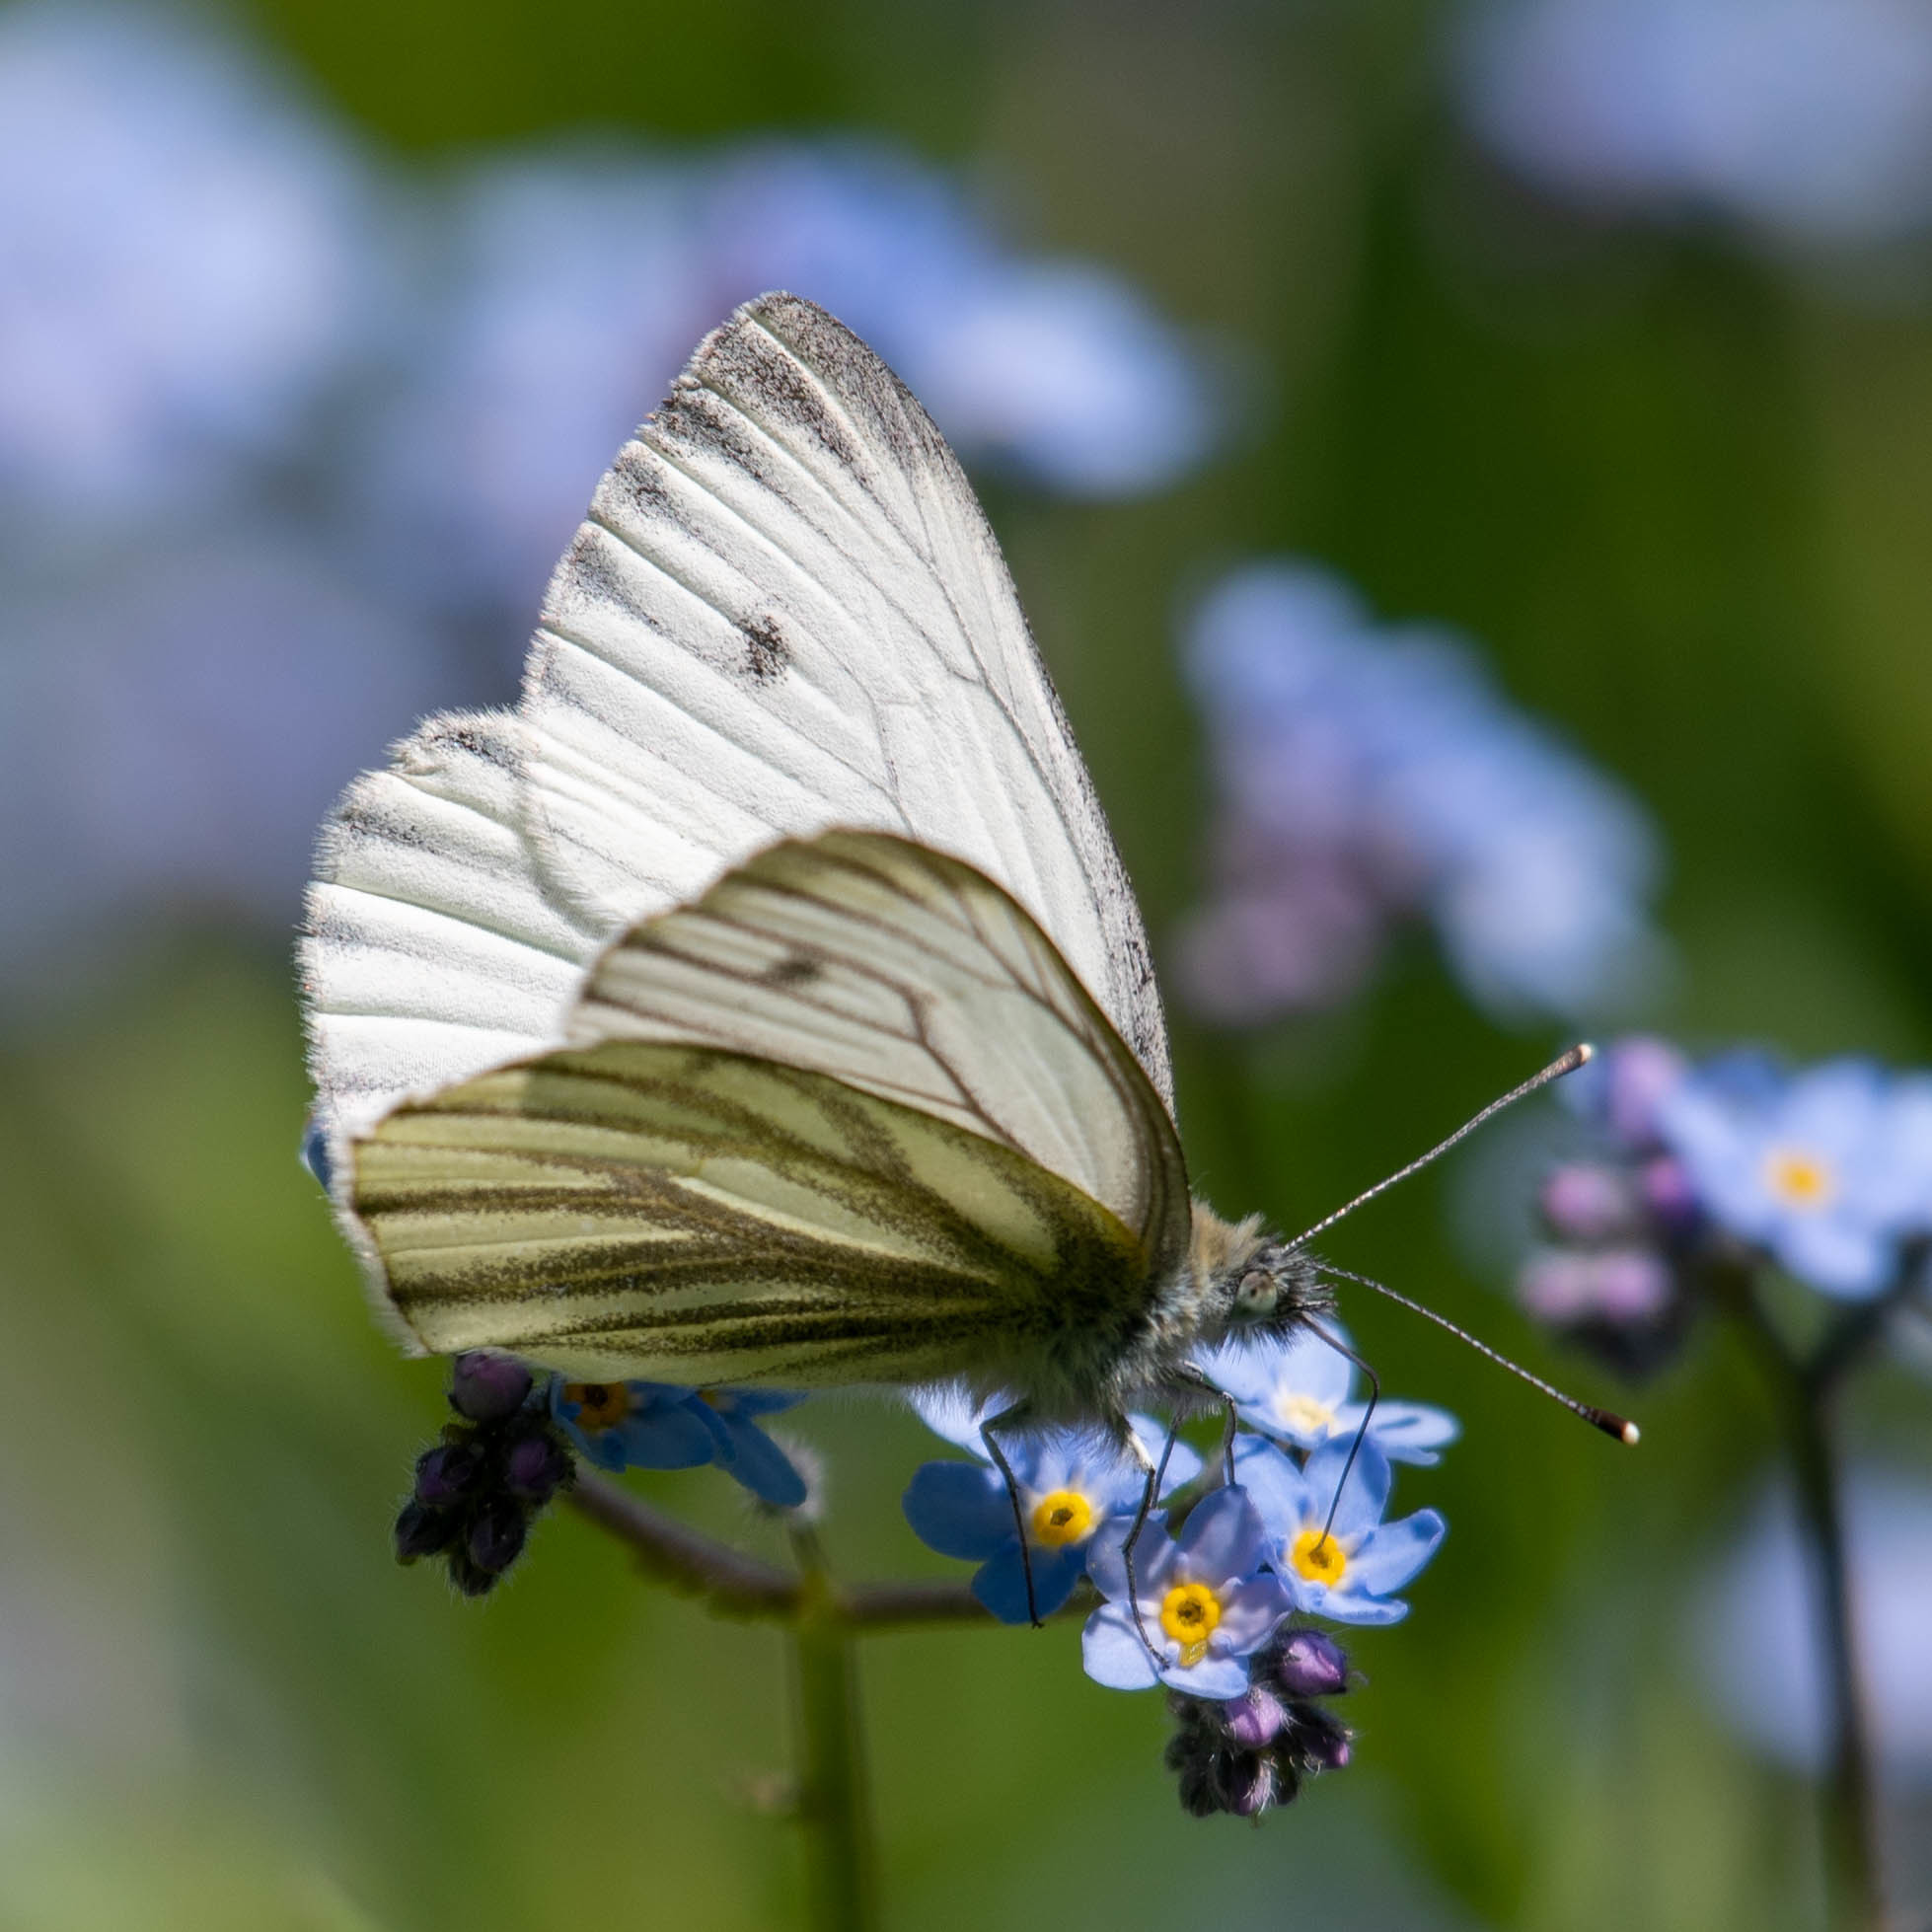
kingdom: Animalia
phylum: Arthropoda
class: Insecta
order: Lepidoptera
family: Pieridae
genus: Pieris
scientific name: Pieris napi
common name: Green-veined white
